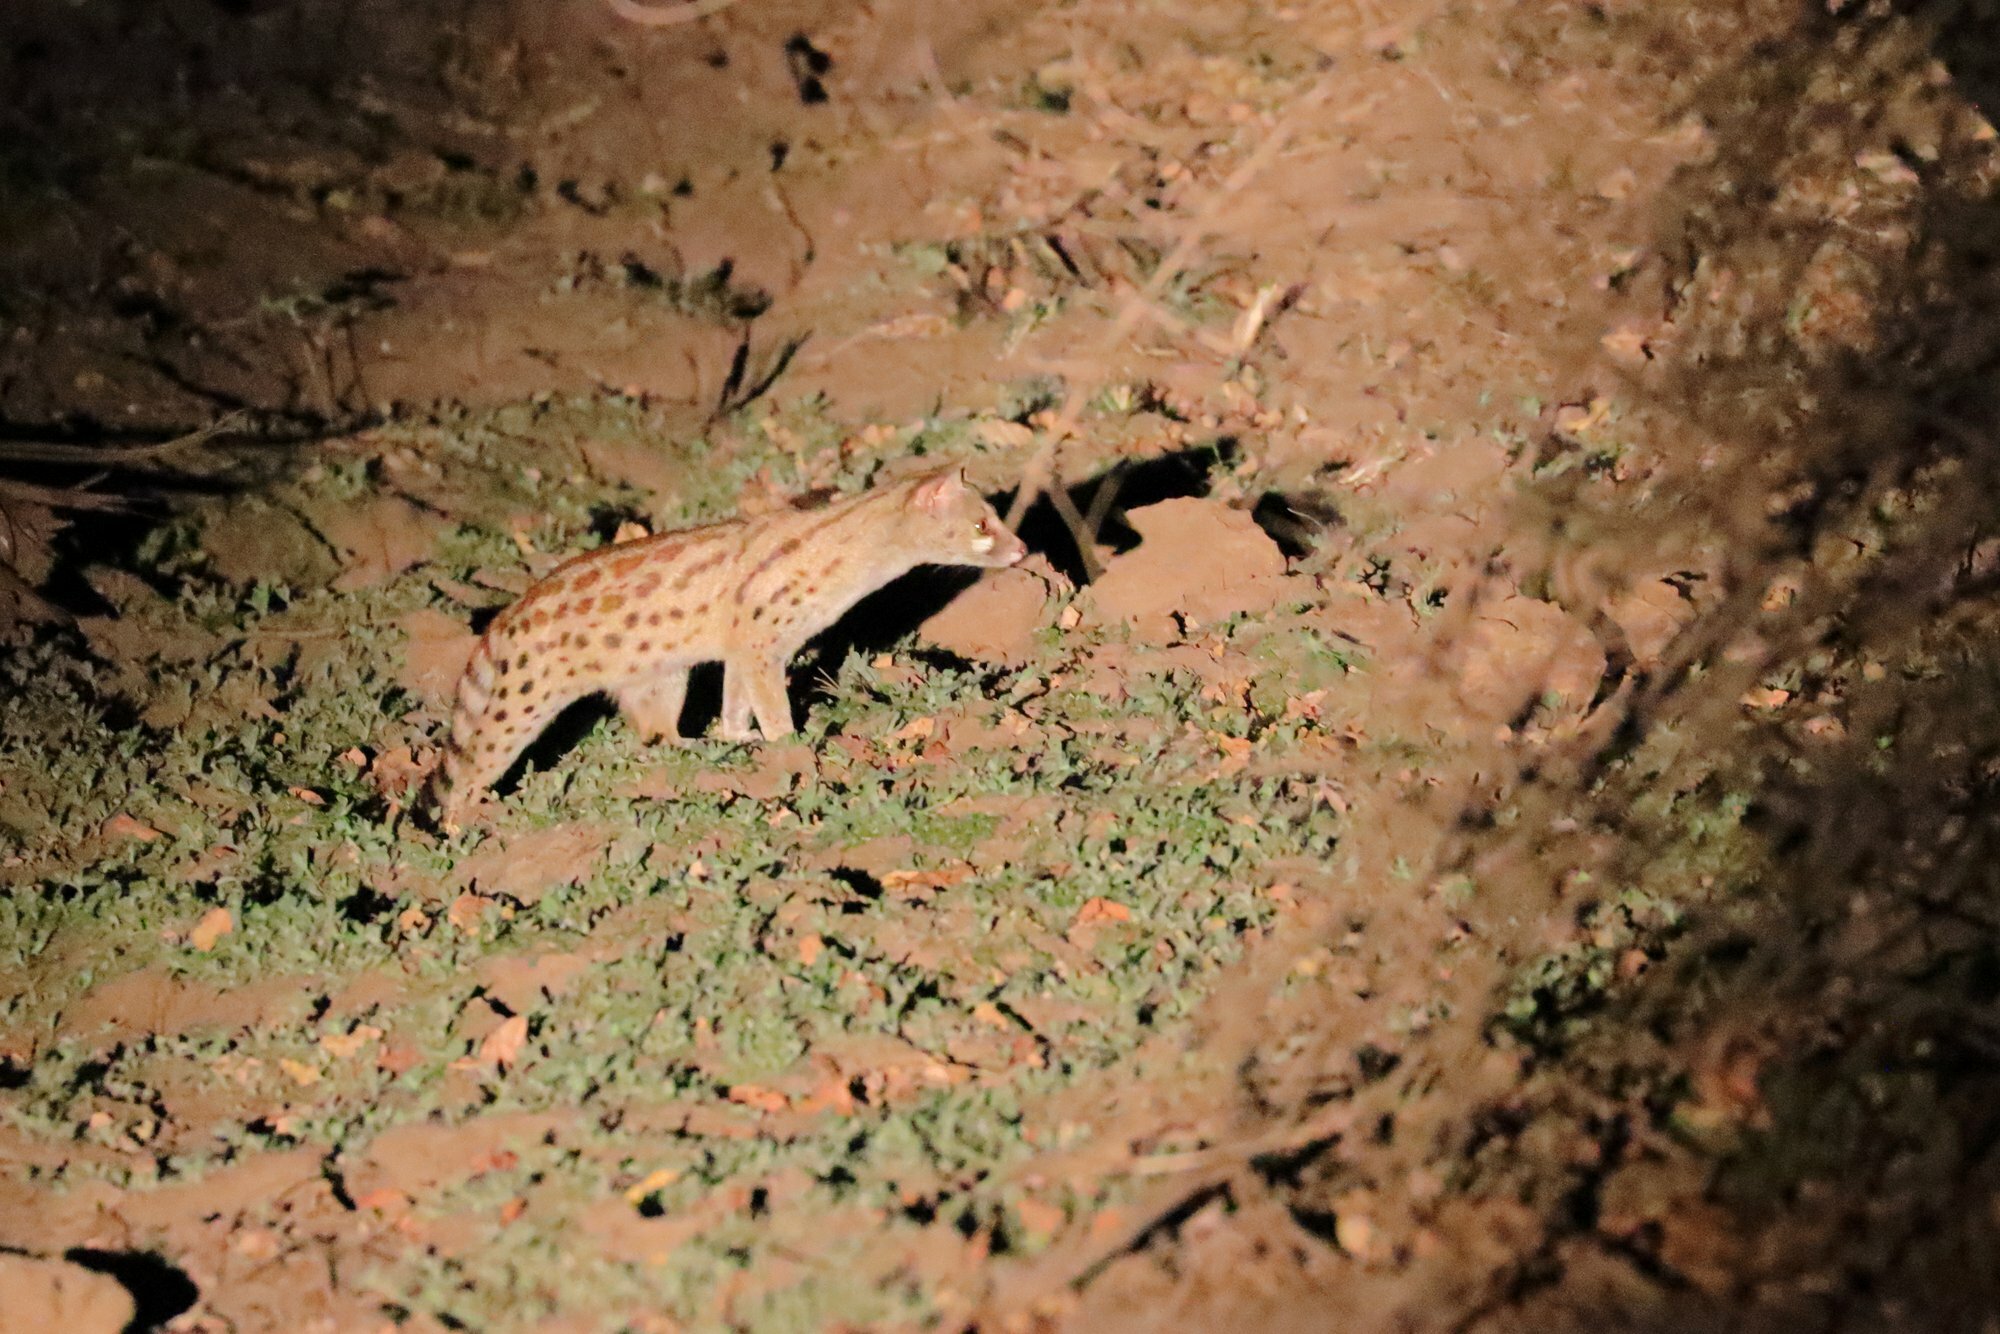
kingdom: Animalia
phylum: Chordata
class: Mammalia
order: Carnivora
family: Viverridae
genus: Genetta
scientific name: Genetta maculata
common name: Rusty-spotted genet
